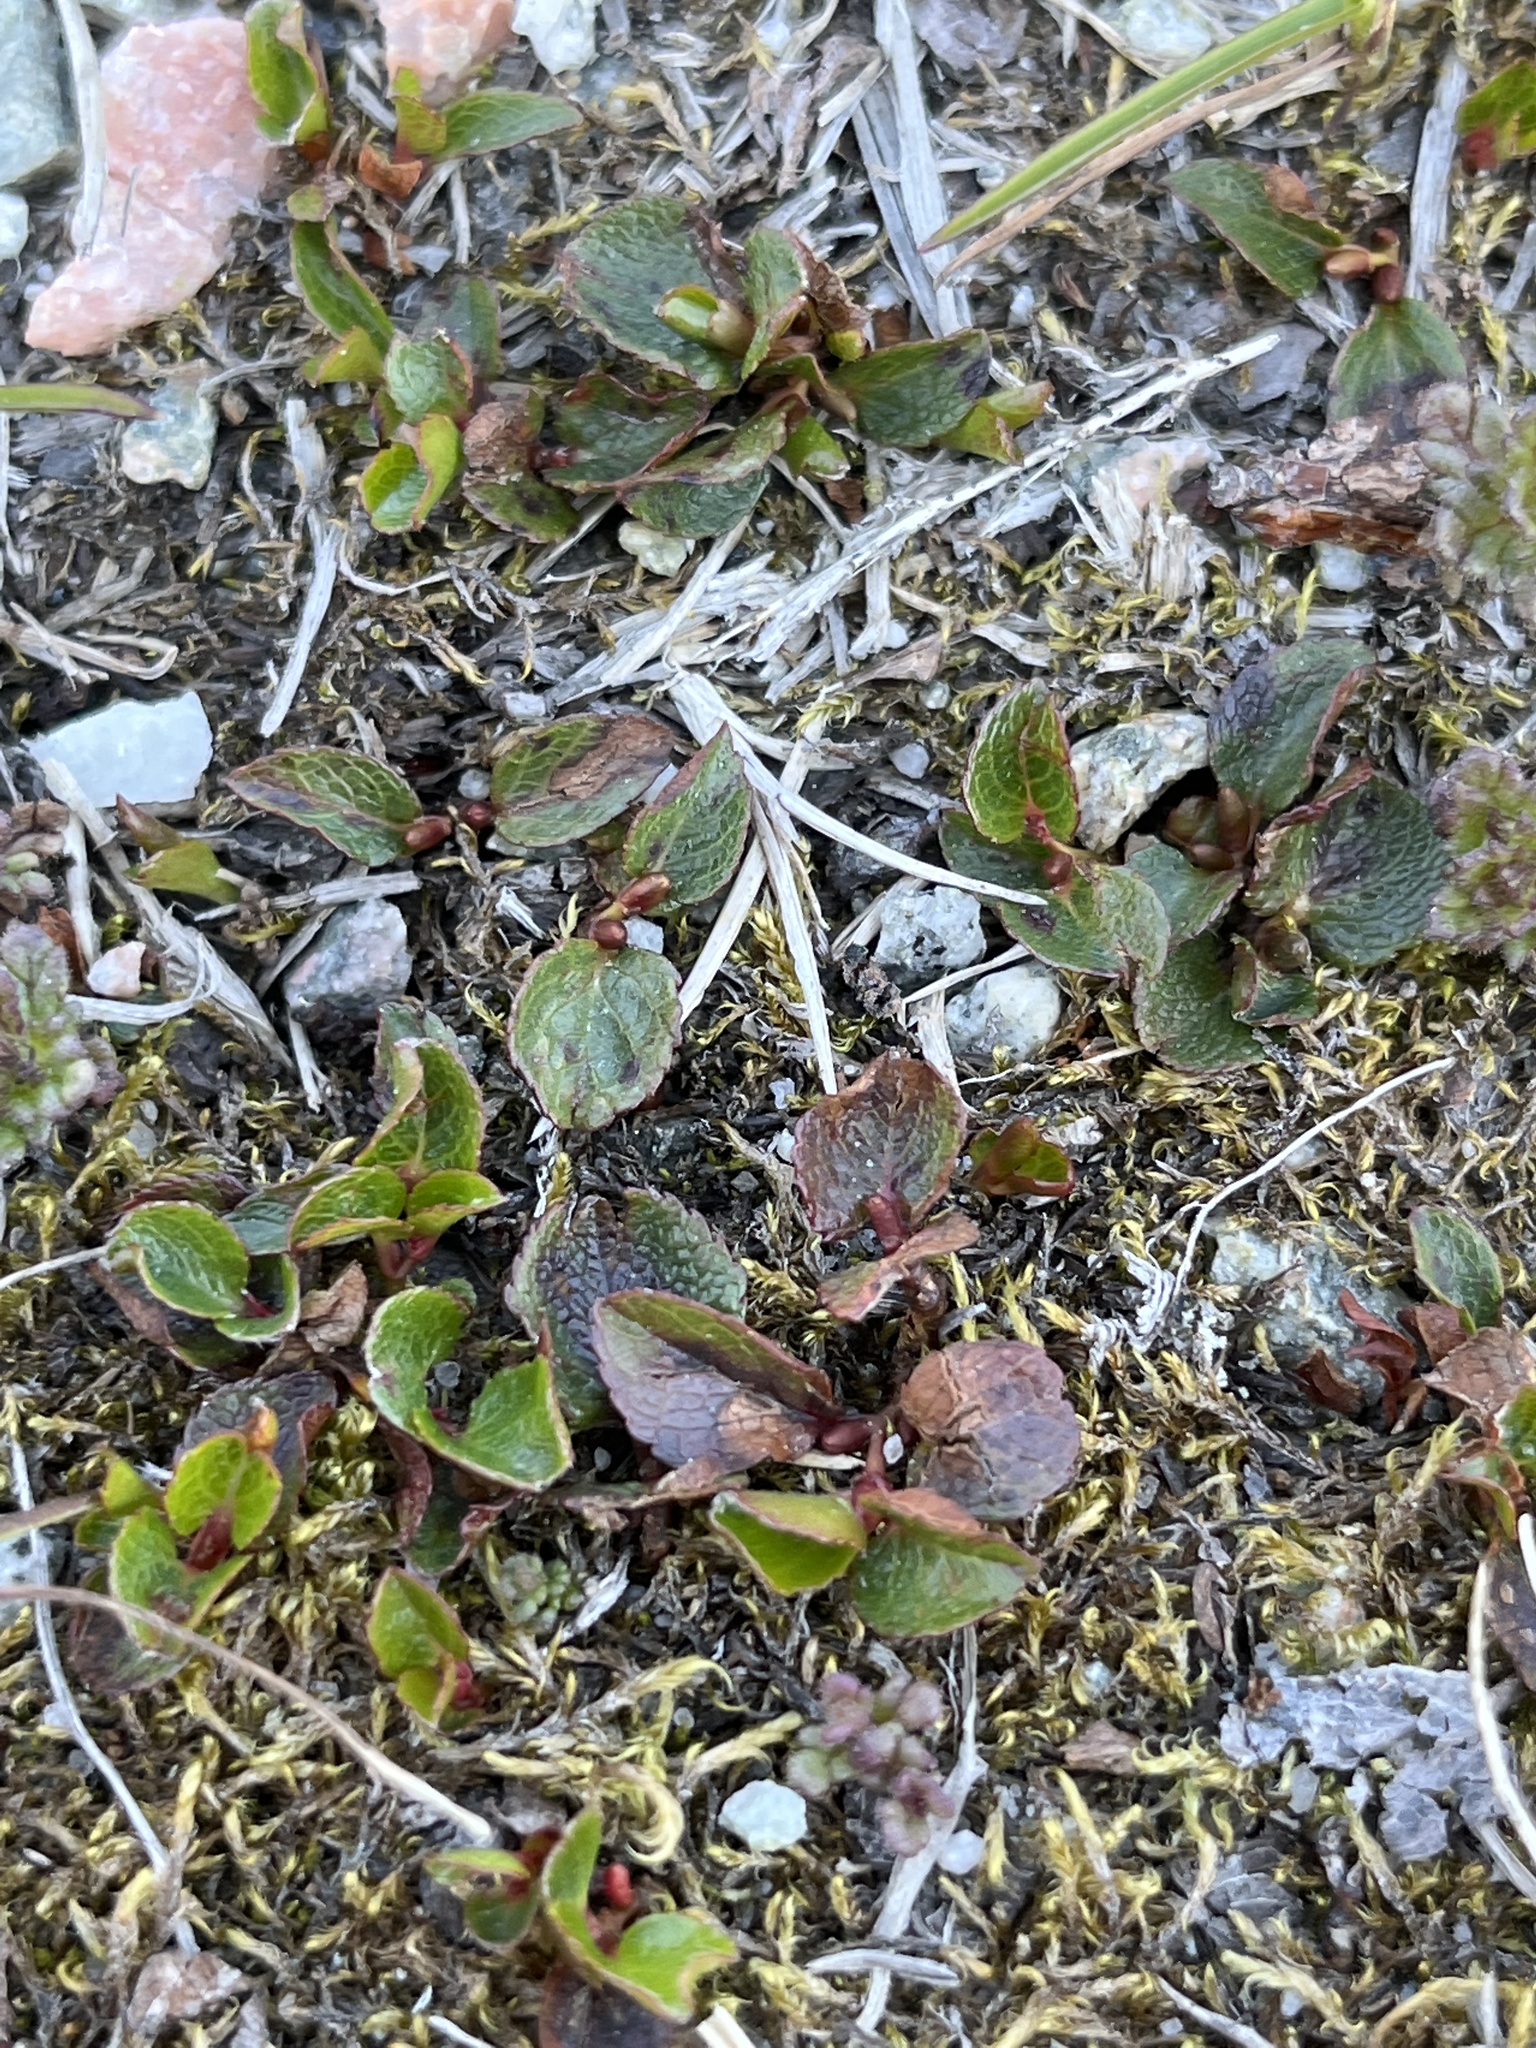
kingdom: Plantae
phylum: Tracheophyta
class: Magnoliopsida
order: Malpighiales
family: Salicaceae
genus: Salix
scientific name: Salix herbacea
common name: Dwarf willow
